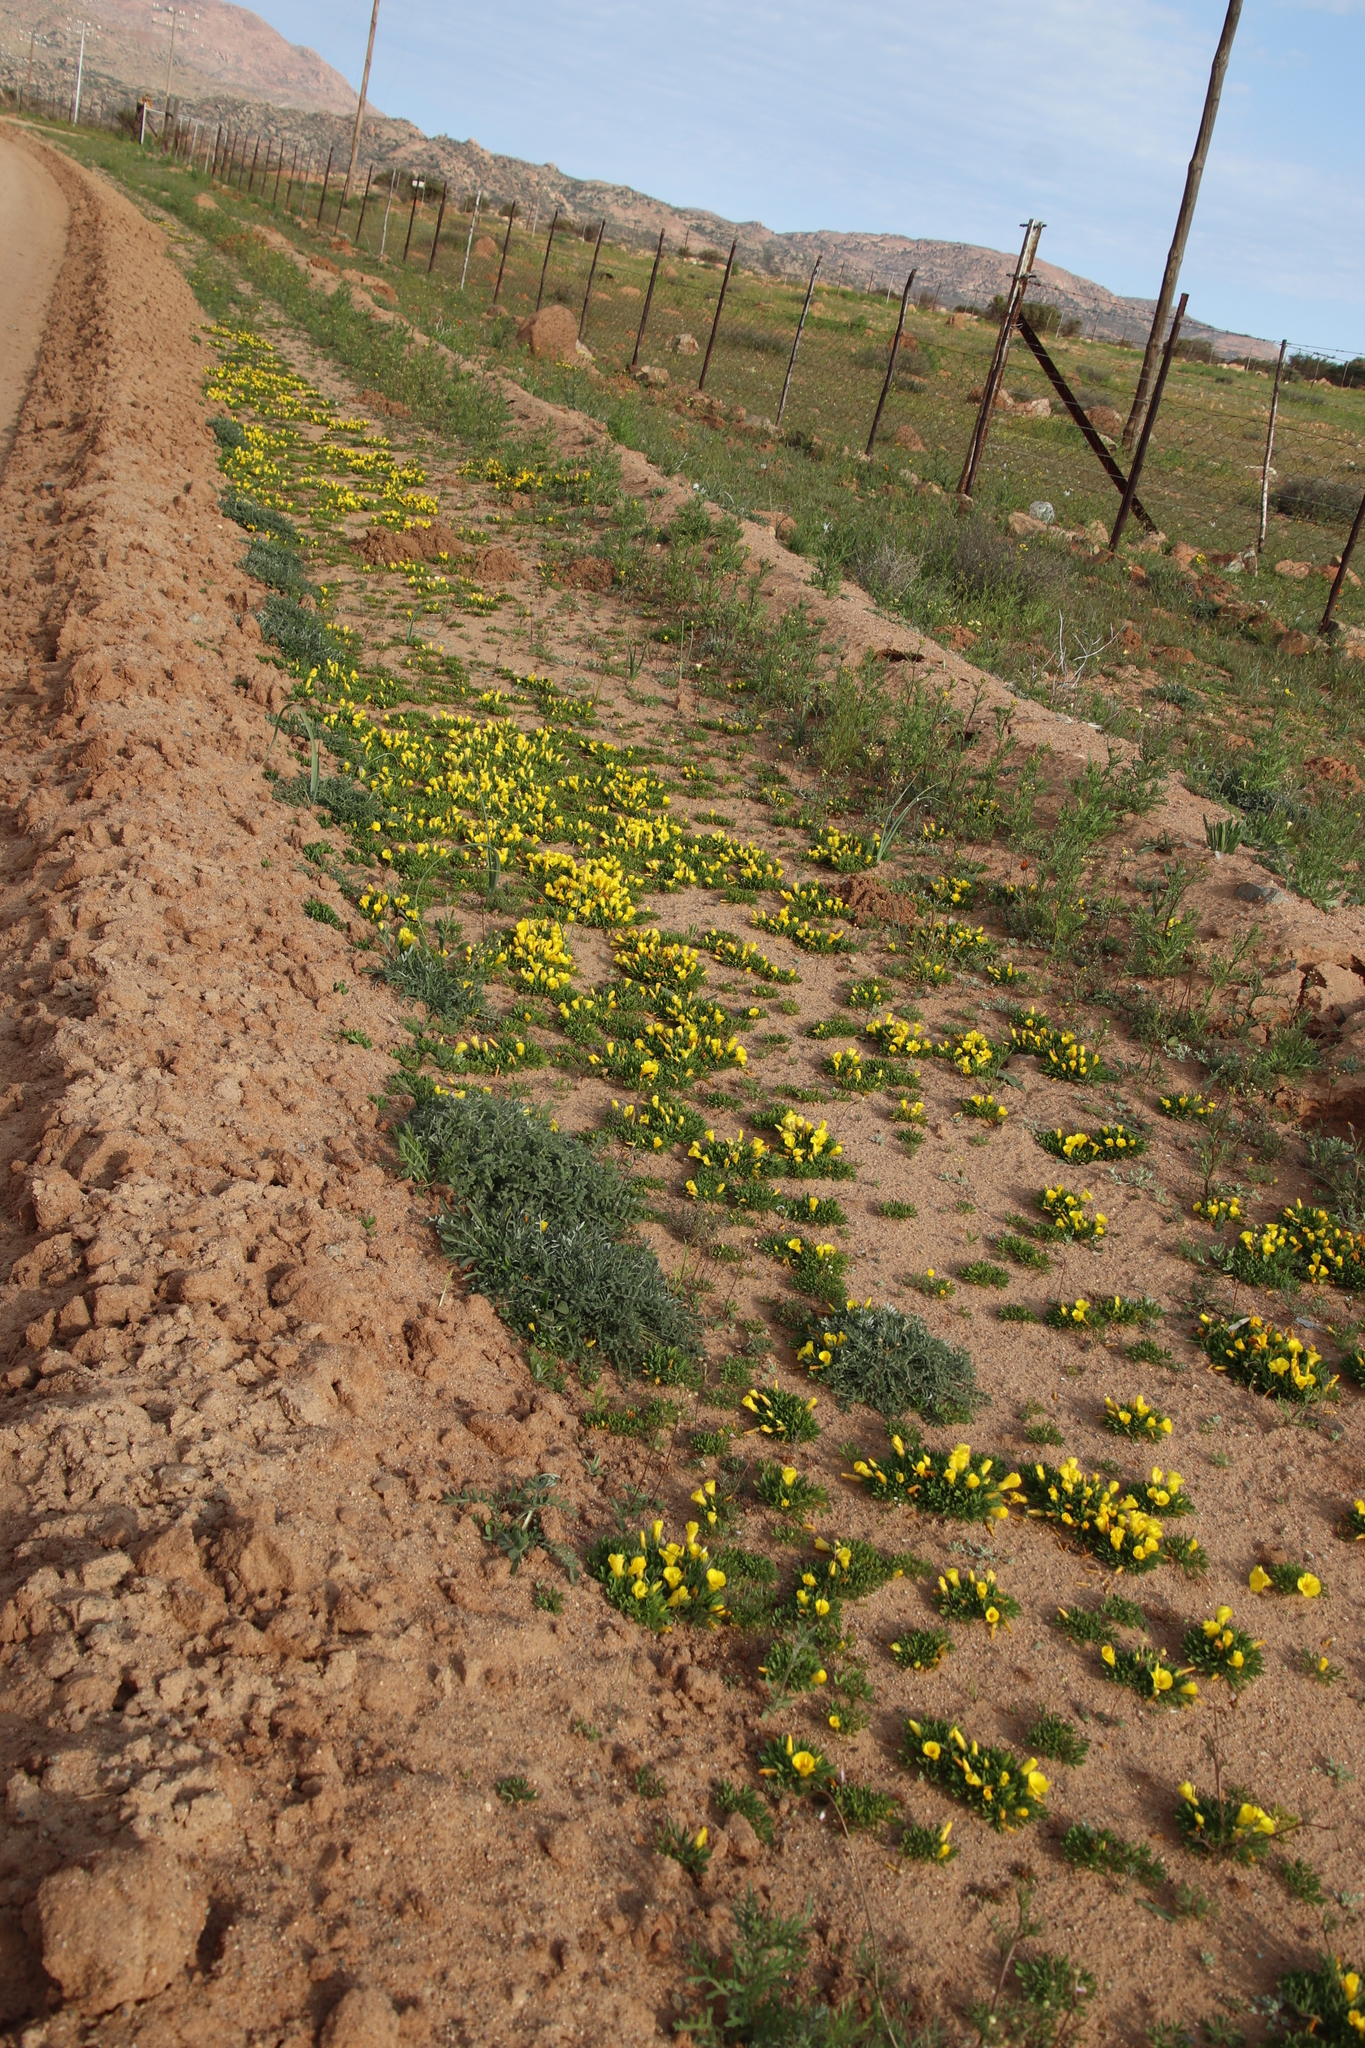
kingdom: Plantae
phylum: Tracheophyta
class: Magnoliopsida
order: Oxalidales
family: Oxalidaceae
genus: Oxalis
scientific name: Oxalis namaquana
